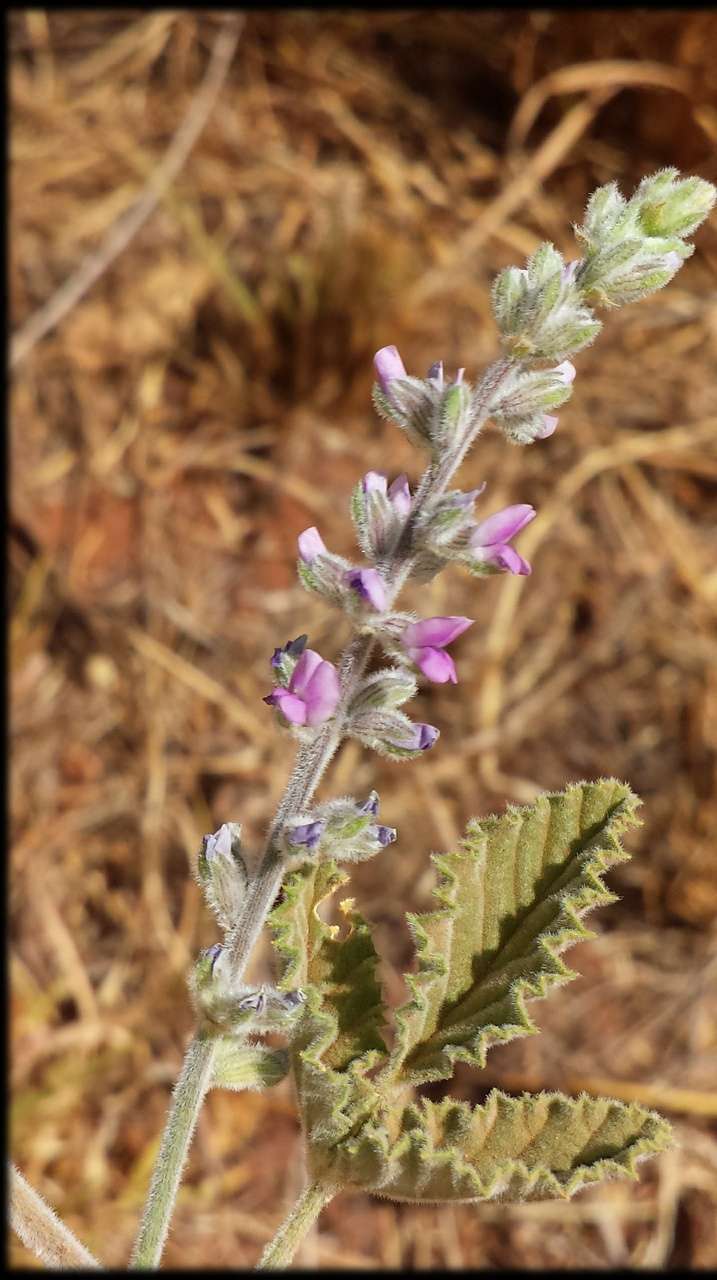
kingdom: Plantae
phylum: Tracheophyta
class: Magnoliopsida
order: Fabales
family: Fabaceae
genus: Cullen
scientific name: Cullen cinereum
